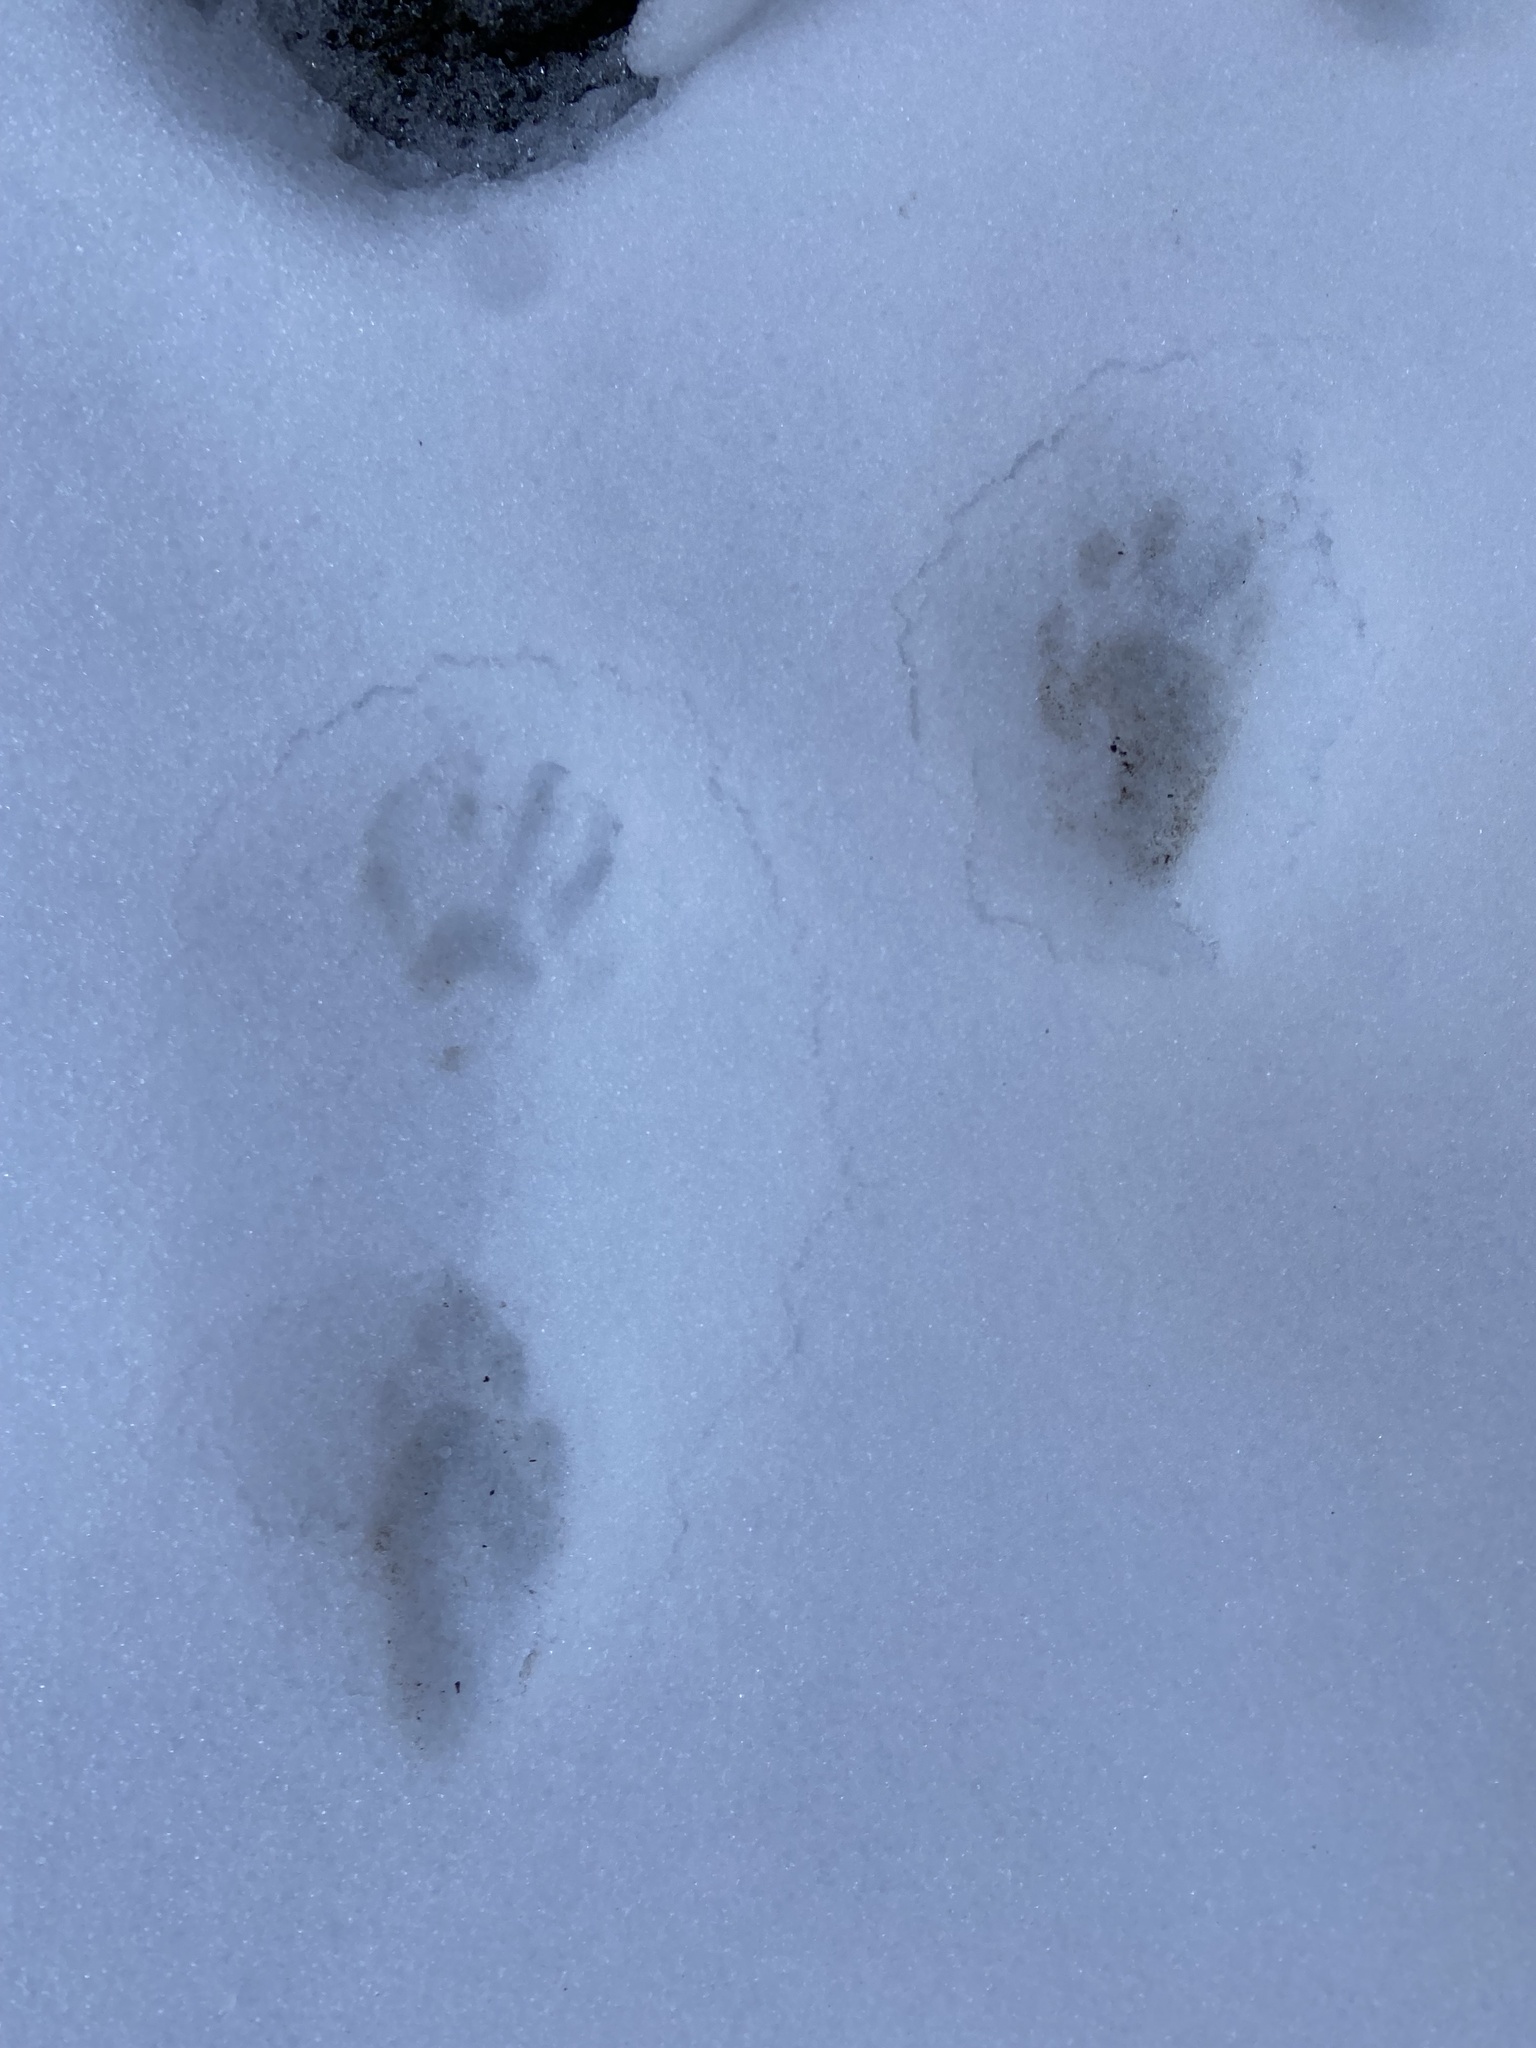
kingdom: Animalia
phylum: Chordata
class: Mammalia
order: Carnivora
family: Procyonidae
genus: Procyon
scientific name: Procyon lotor
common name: Raccoon
